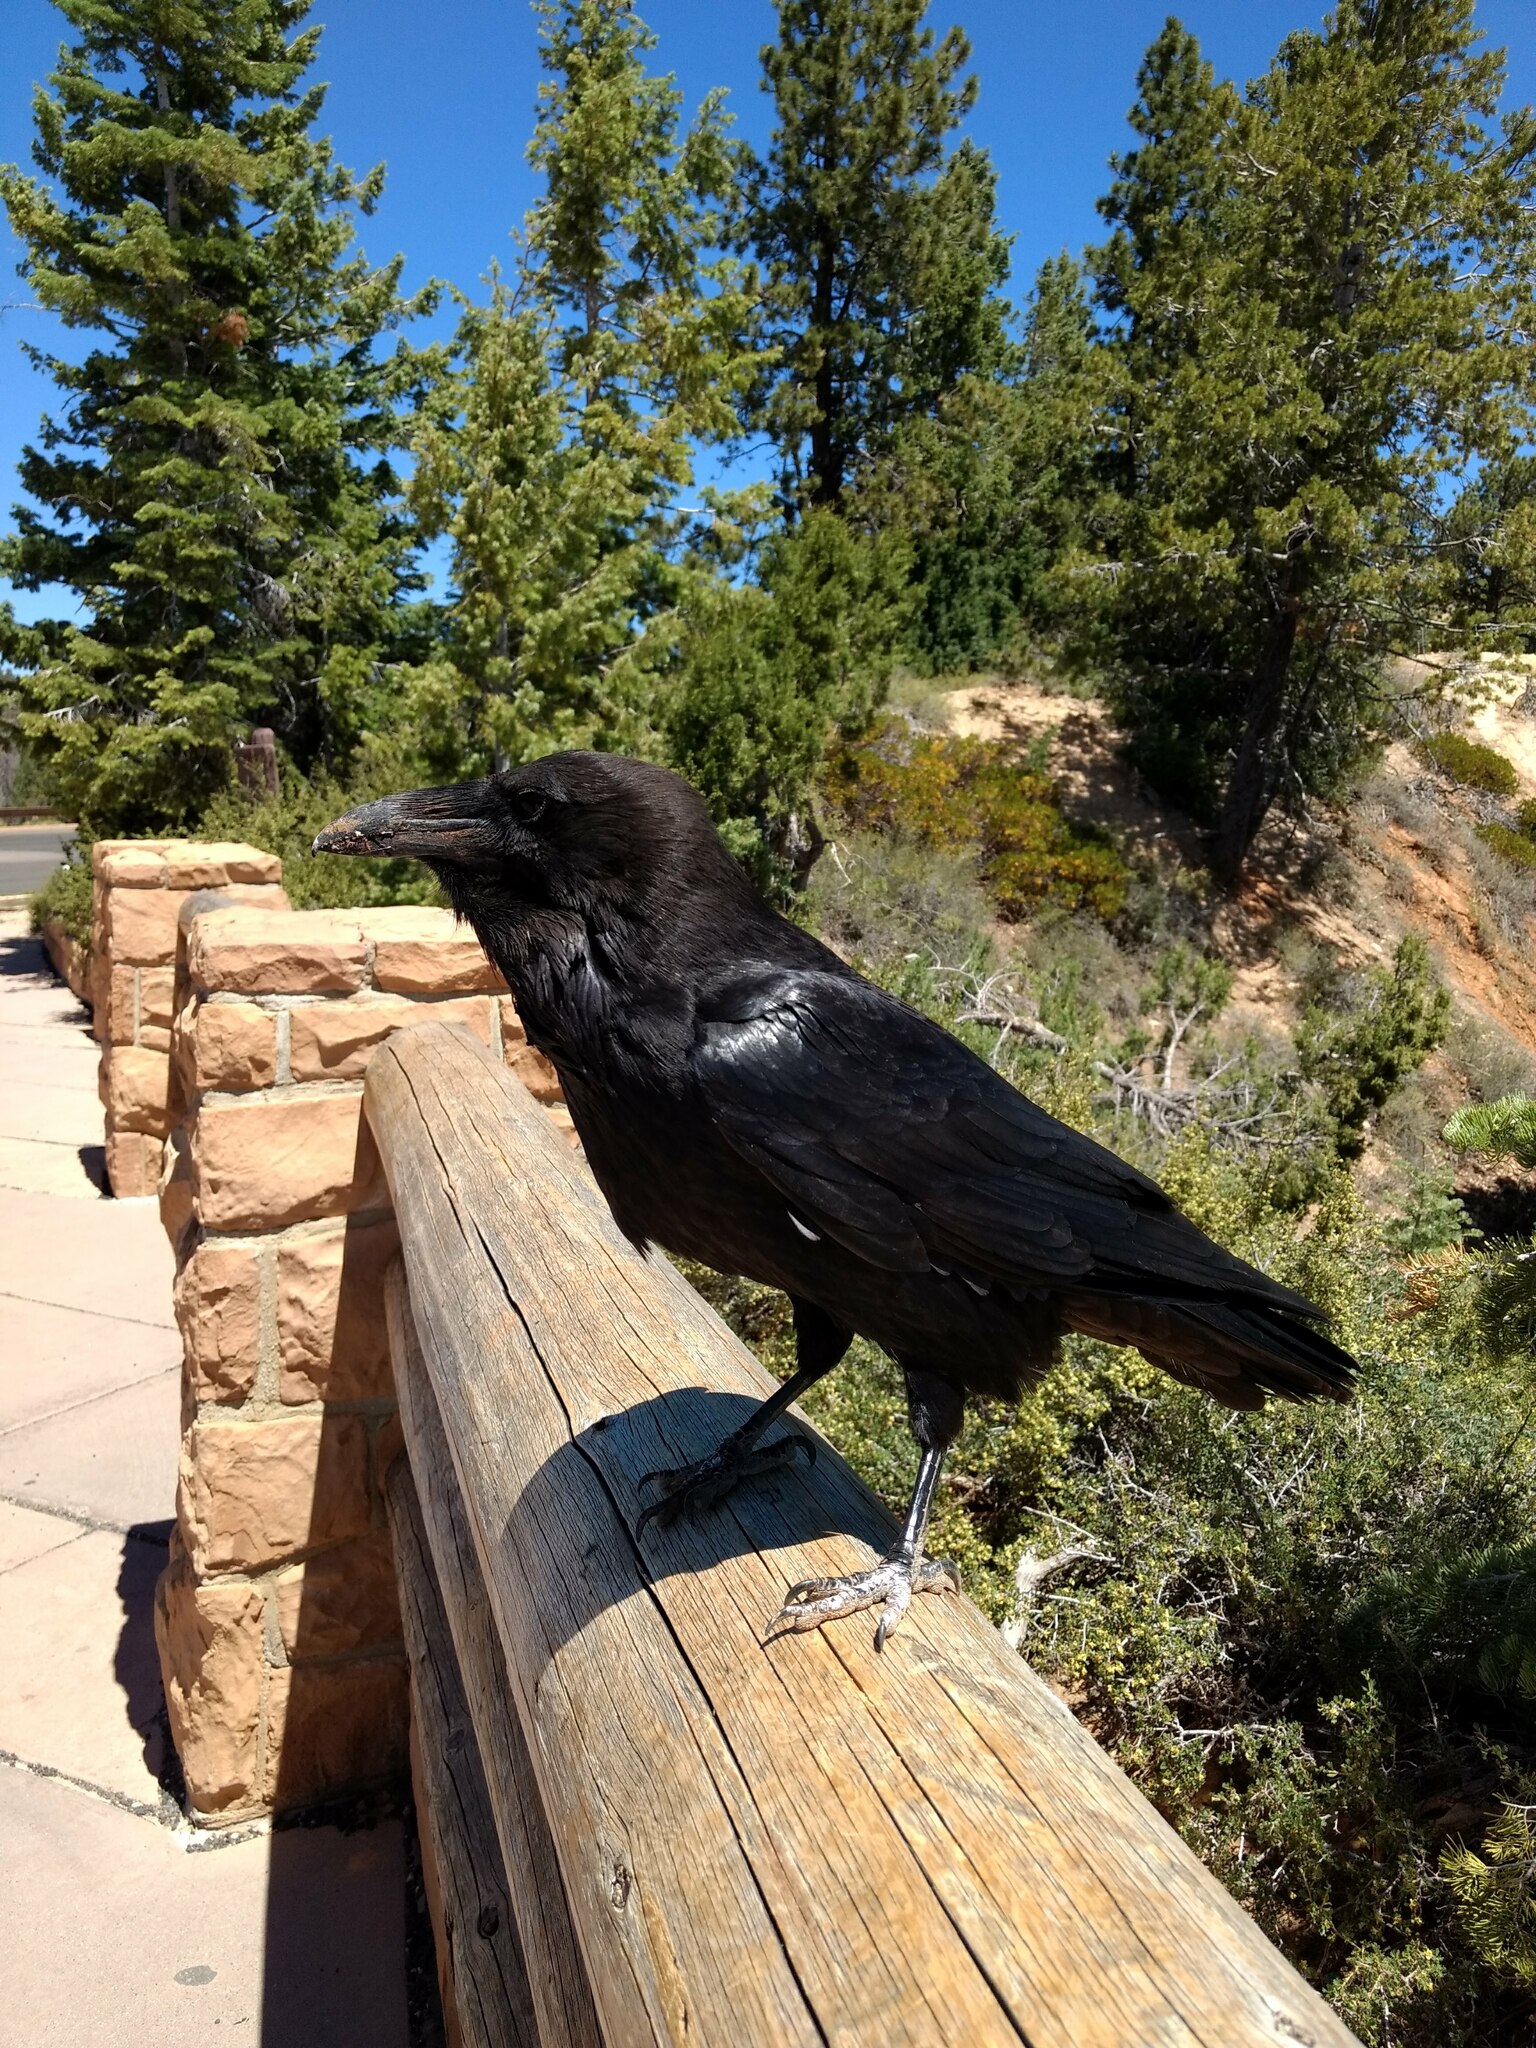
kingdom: Animalia
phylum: Chordata
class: Aves
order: Passeriformes
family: Corvidae
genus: Corvus
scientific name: Corvus corax
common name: Common raven
